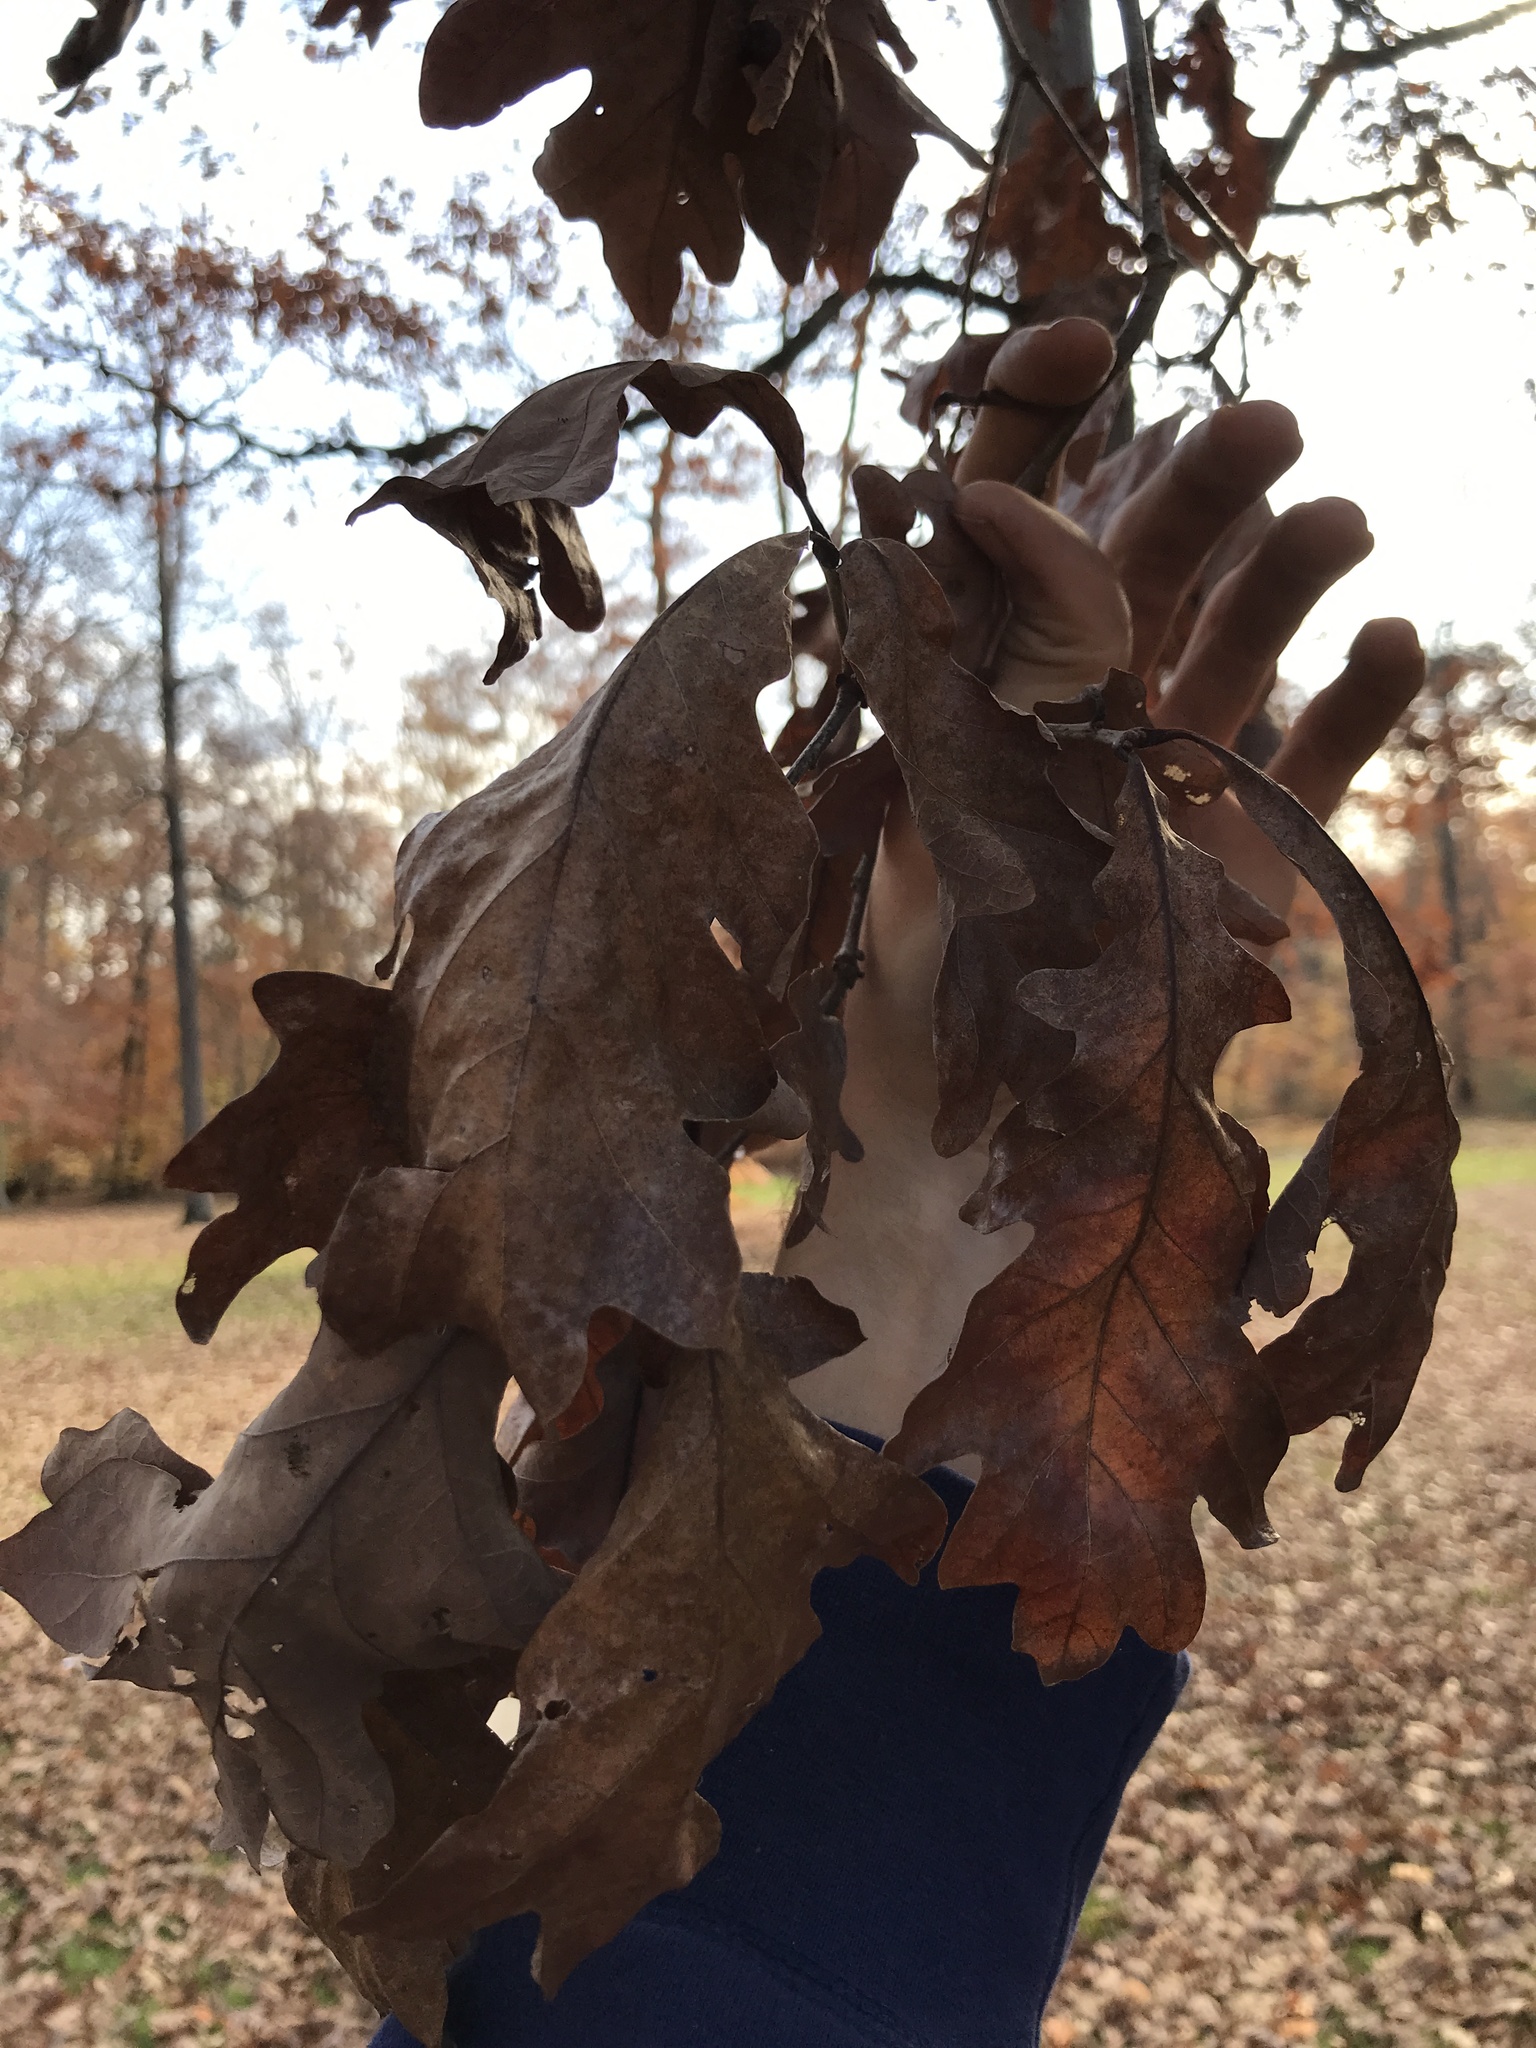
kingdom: Plantae
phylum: Tracheophyta
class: Magnoliopsida
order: Fagales
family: Fagaceae
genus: Quercus
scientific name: Quercus alba
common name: White oak
